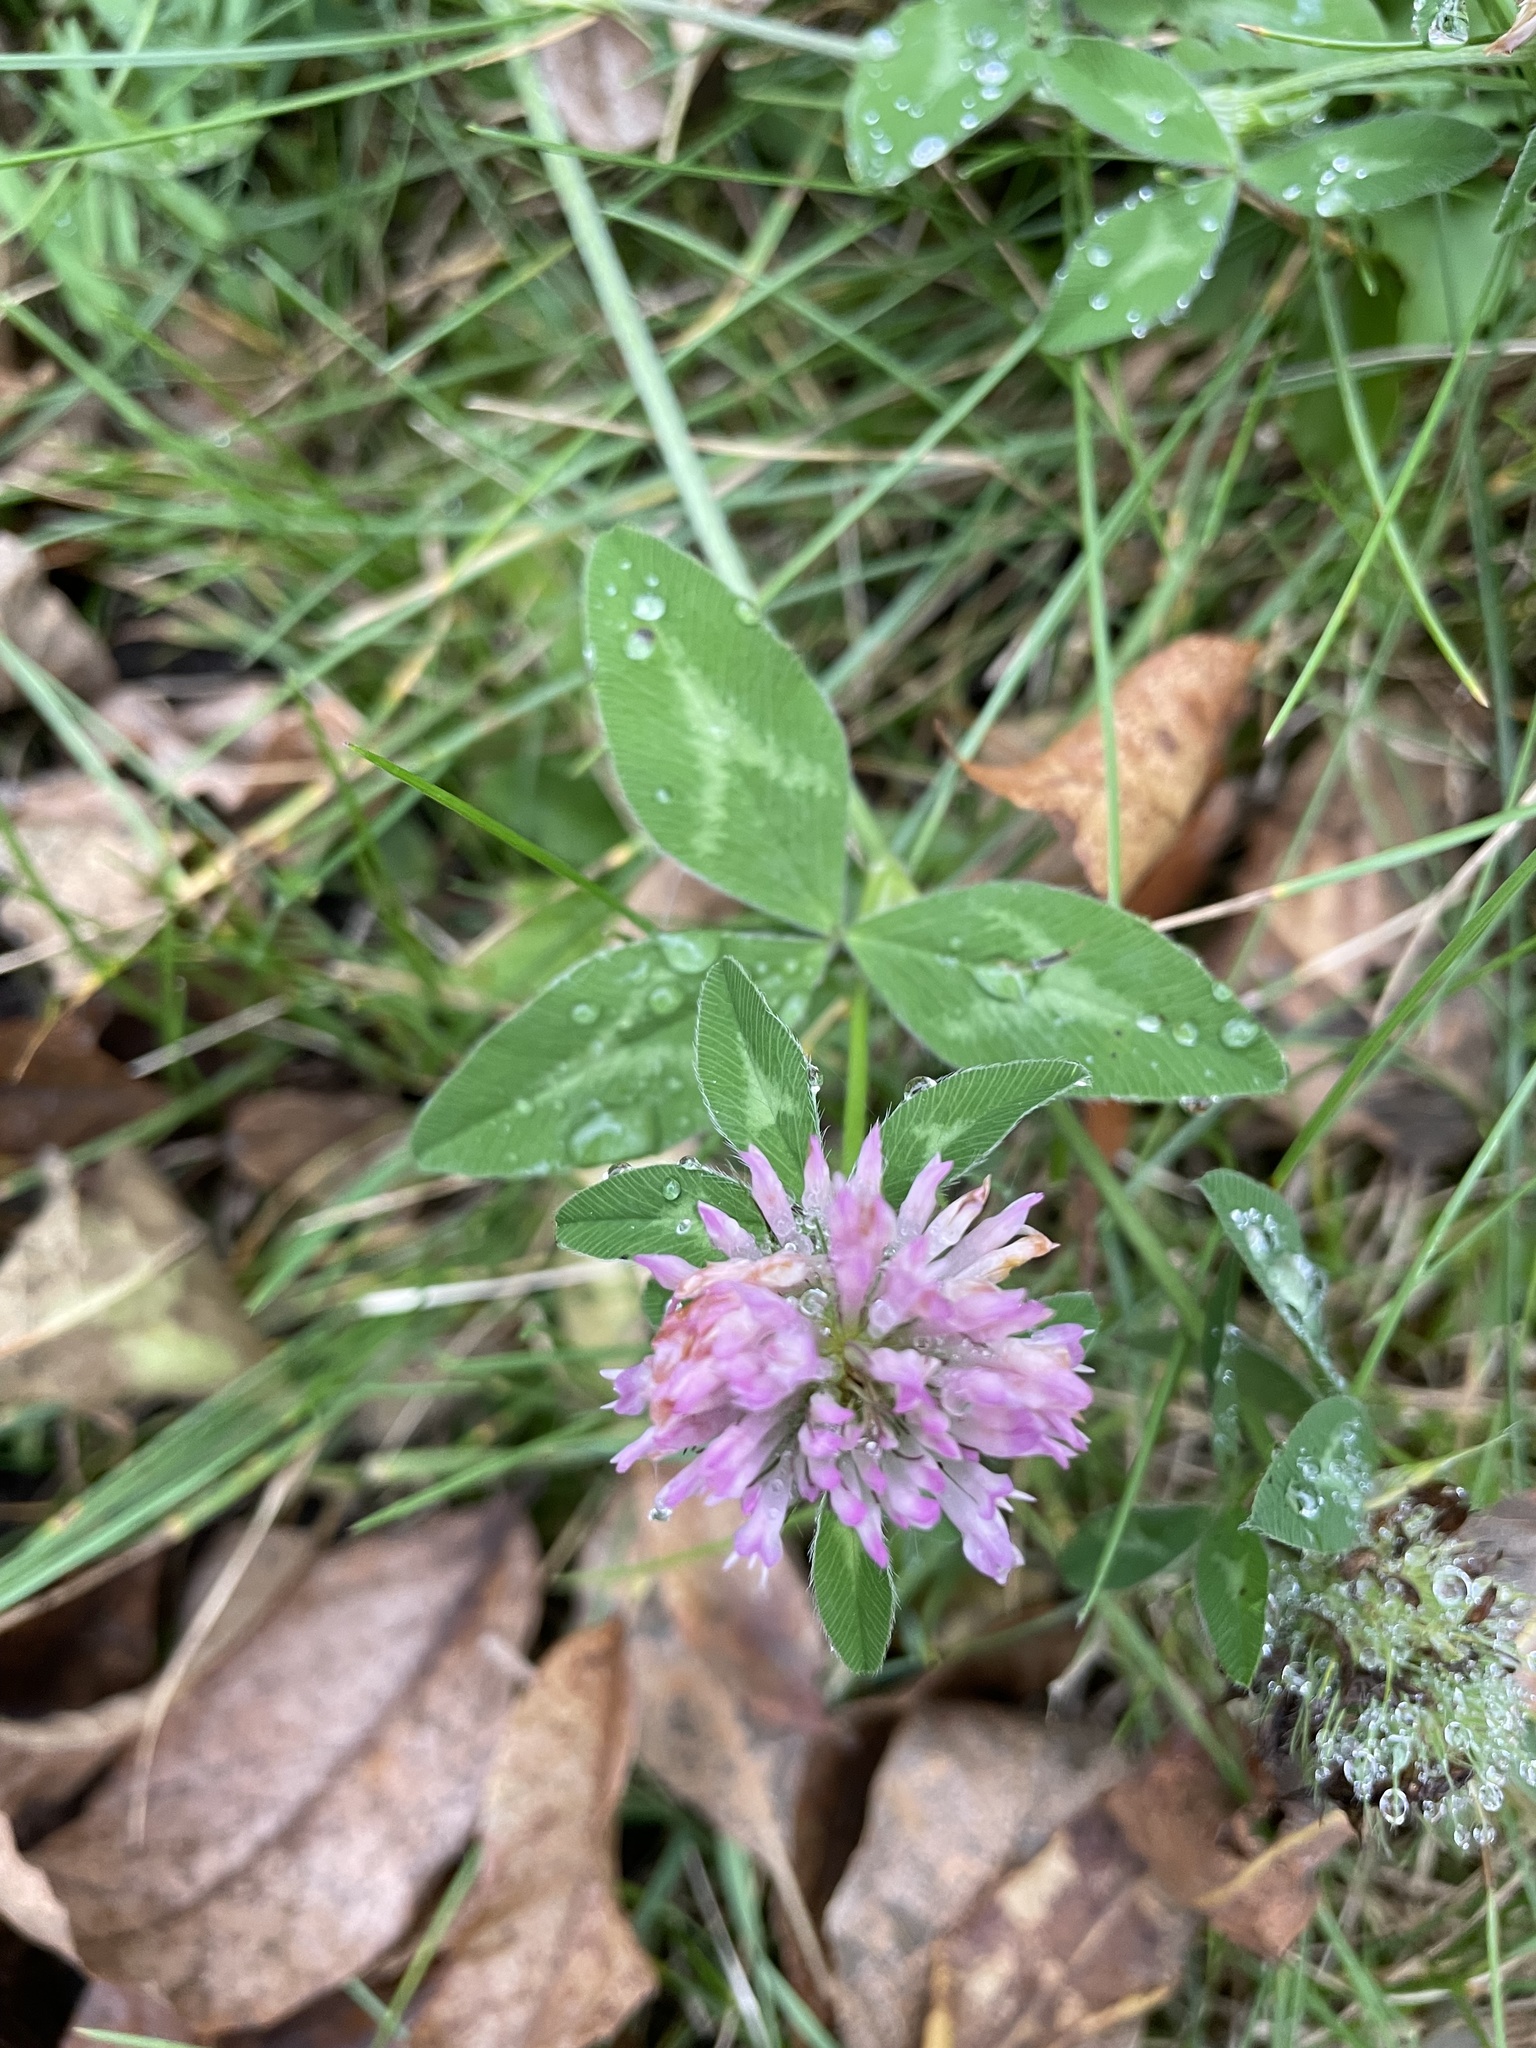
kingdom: Plantae
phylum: Tracheophyta
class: Magnoliopsida
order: Fabales
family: Fabaceae
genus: Trifolium
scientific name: Trifolium pratense
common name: Red clover
